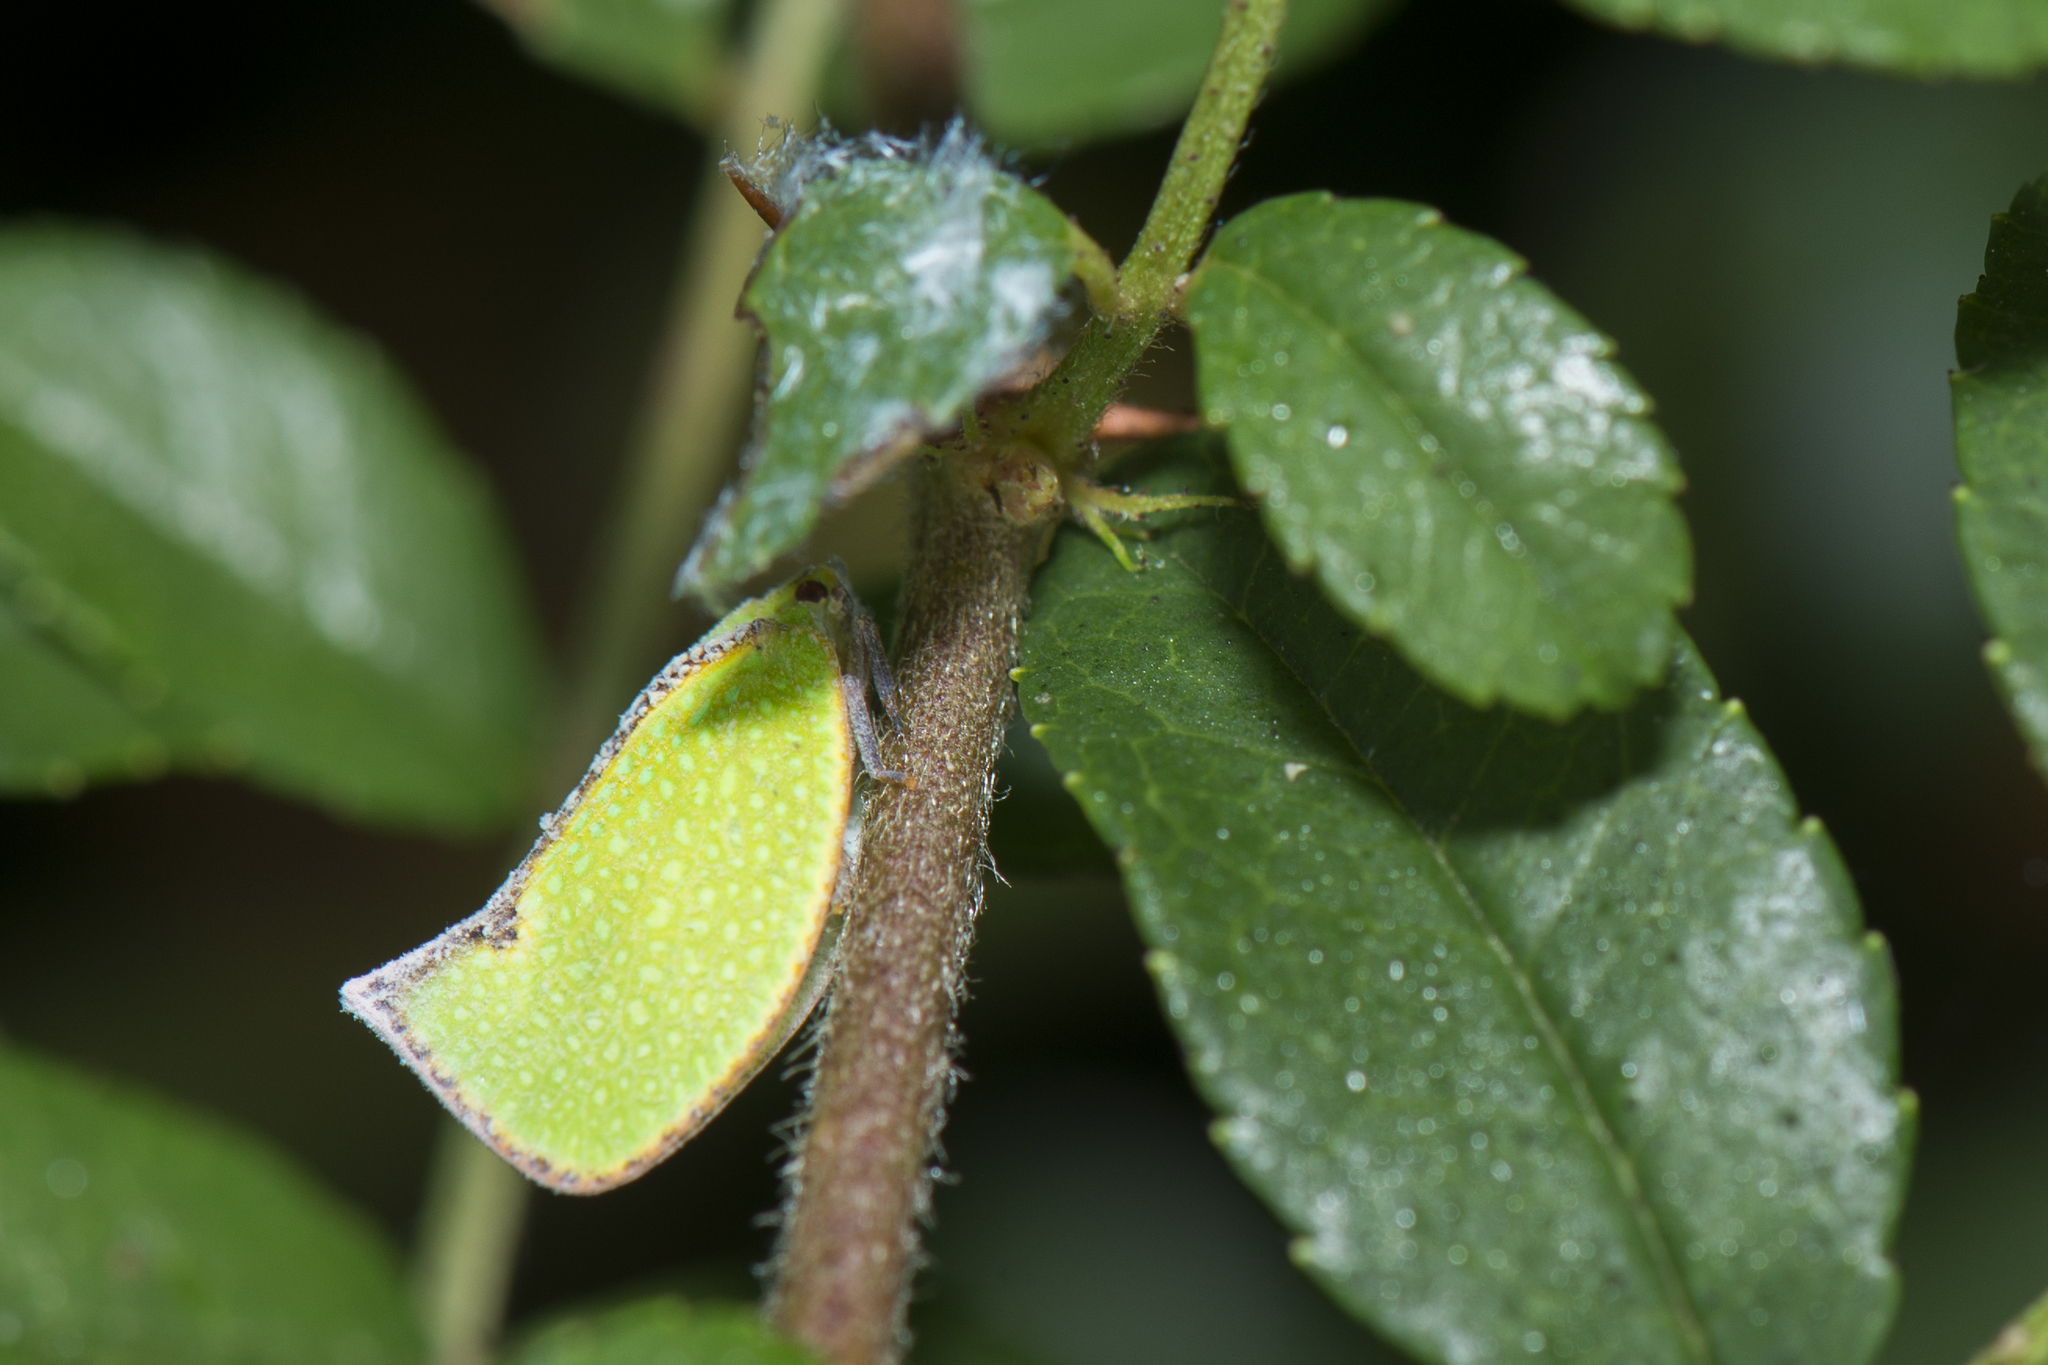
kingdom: Animalia
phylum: Arthropoda
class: Insecta
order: Hemiptera
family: Flatidae
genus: Salurnis
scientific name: Salurnis marginella
